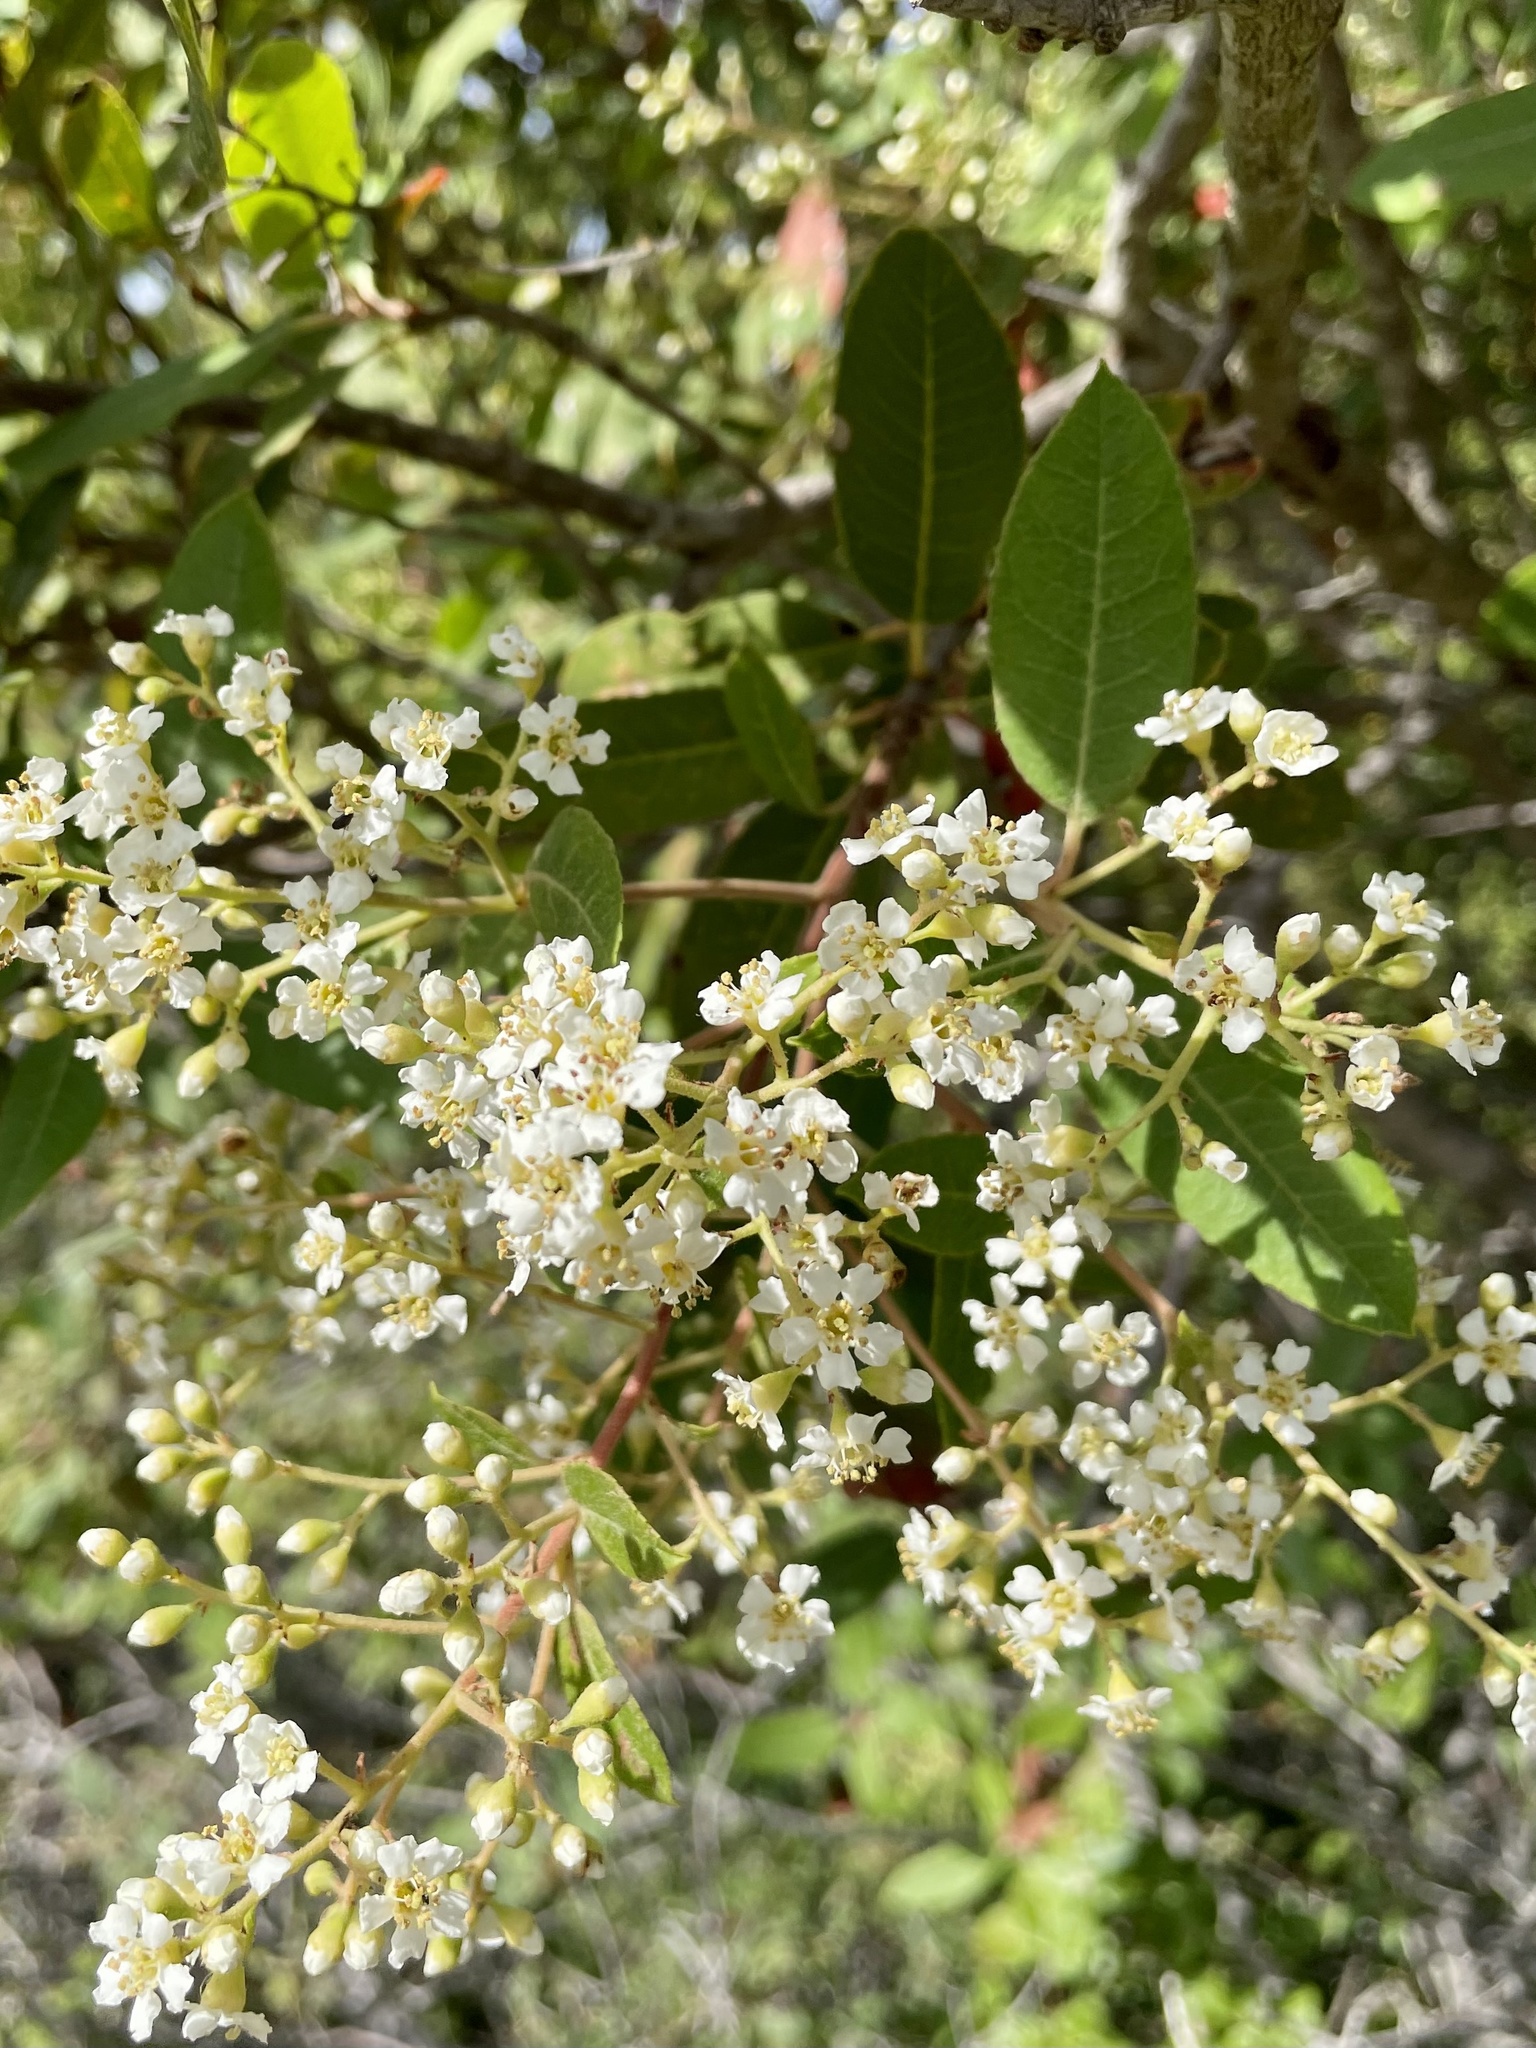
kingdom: Plantae
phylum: Tracheophyta
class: Magnoliopsida
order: Rosales
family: Rosaceae
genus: Heteromeles
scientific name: Heteromeles arbutifolia
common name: California-holly
